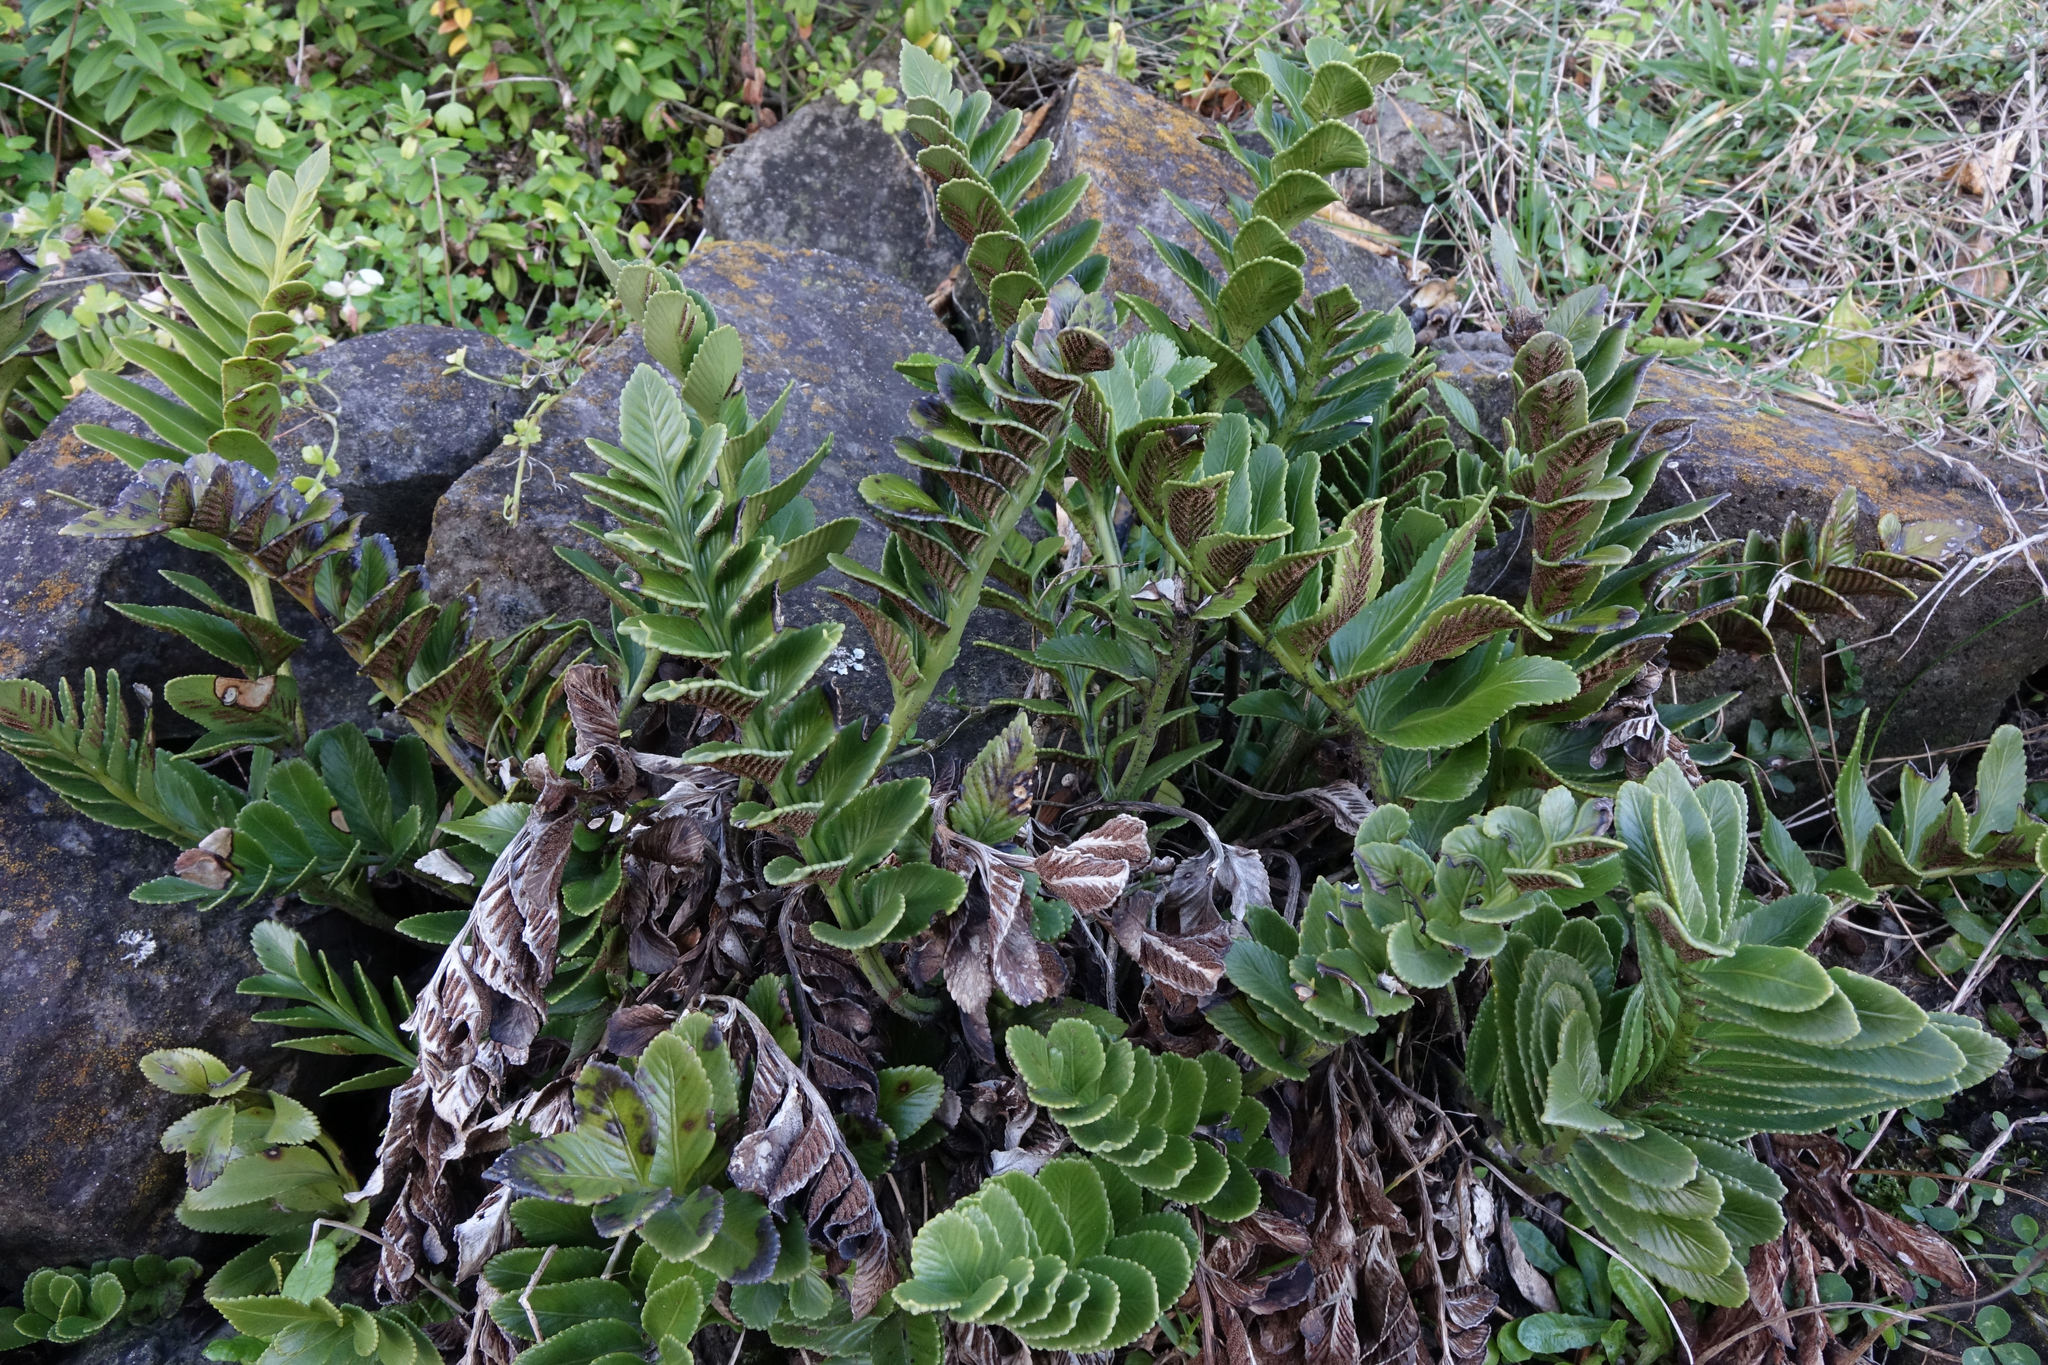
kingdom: Plantae
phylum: Tracheophyta
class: Polypodiopsida
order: Polypodiales
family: Aspleniaceae
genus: Asplenium
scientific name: Asplenium obtusatum
